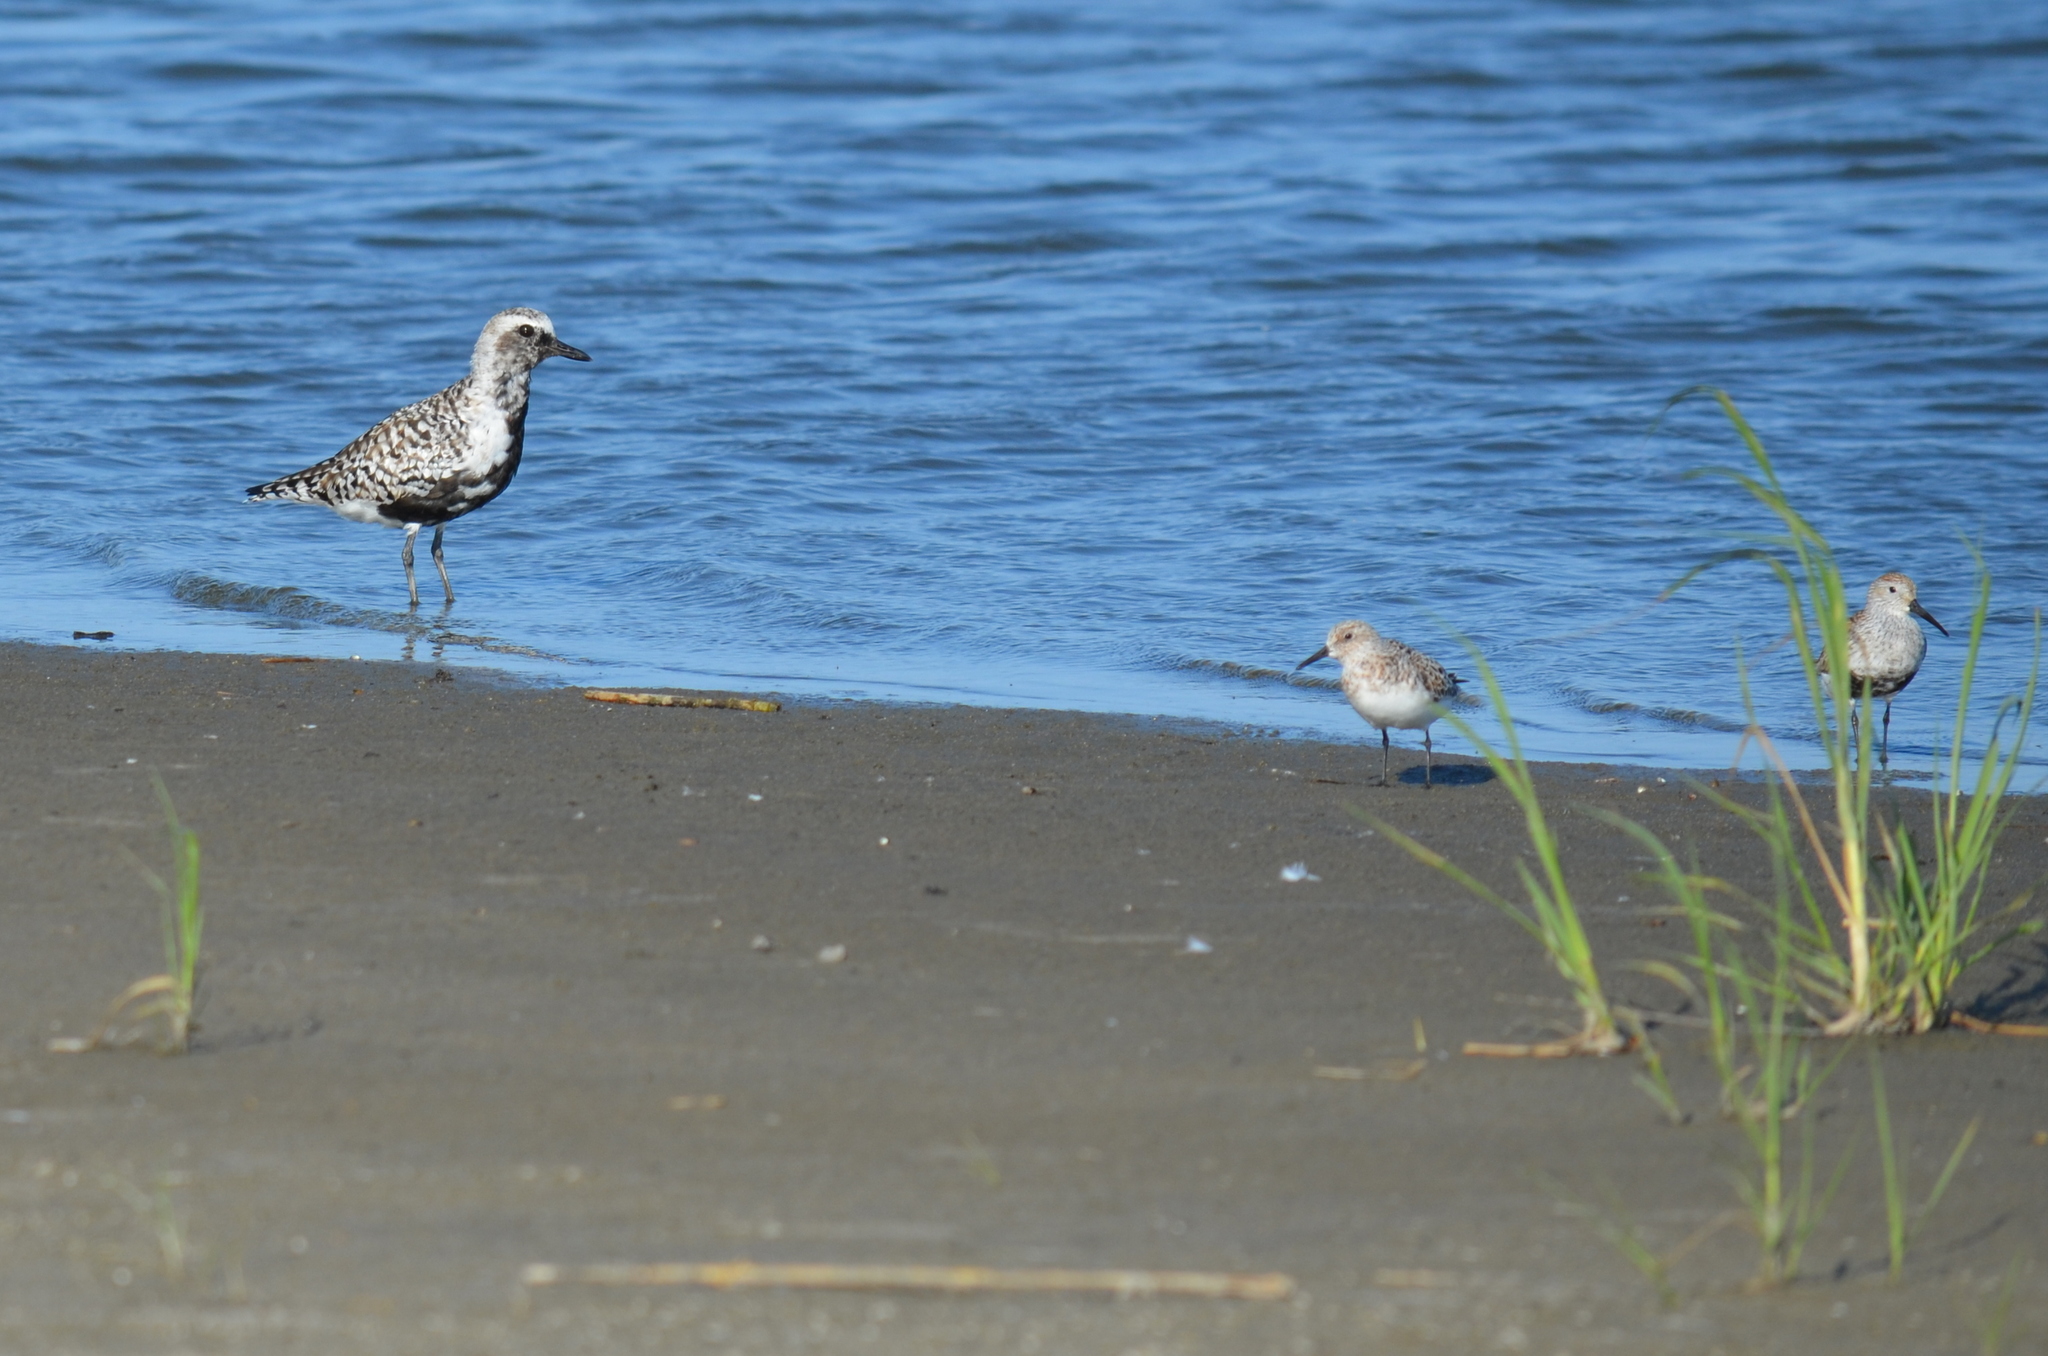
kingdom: Animalia
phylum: Chordata
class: Aves
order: Charadriiformes
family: Charadriidae
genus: Pluvialis
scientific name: Pluvialis squatarola
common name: Grey plover
